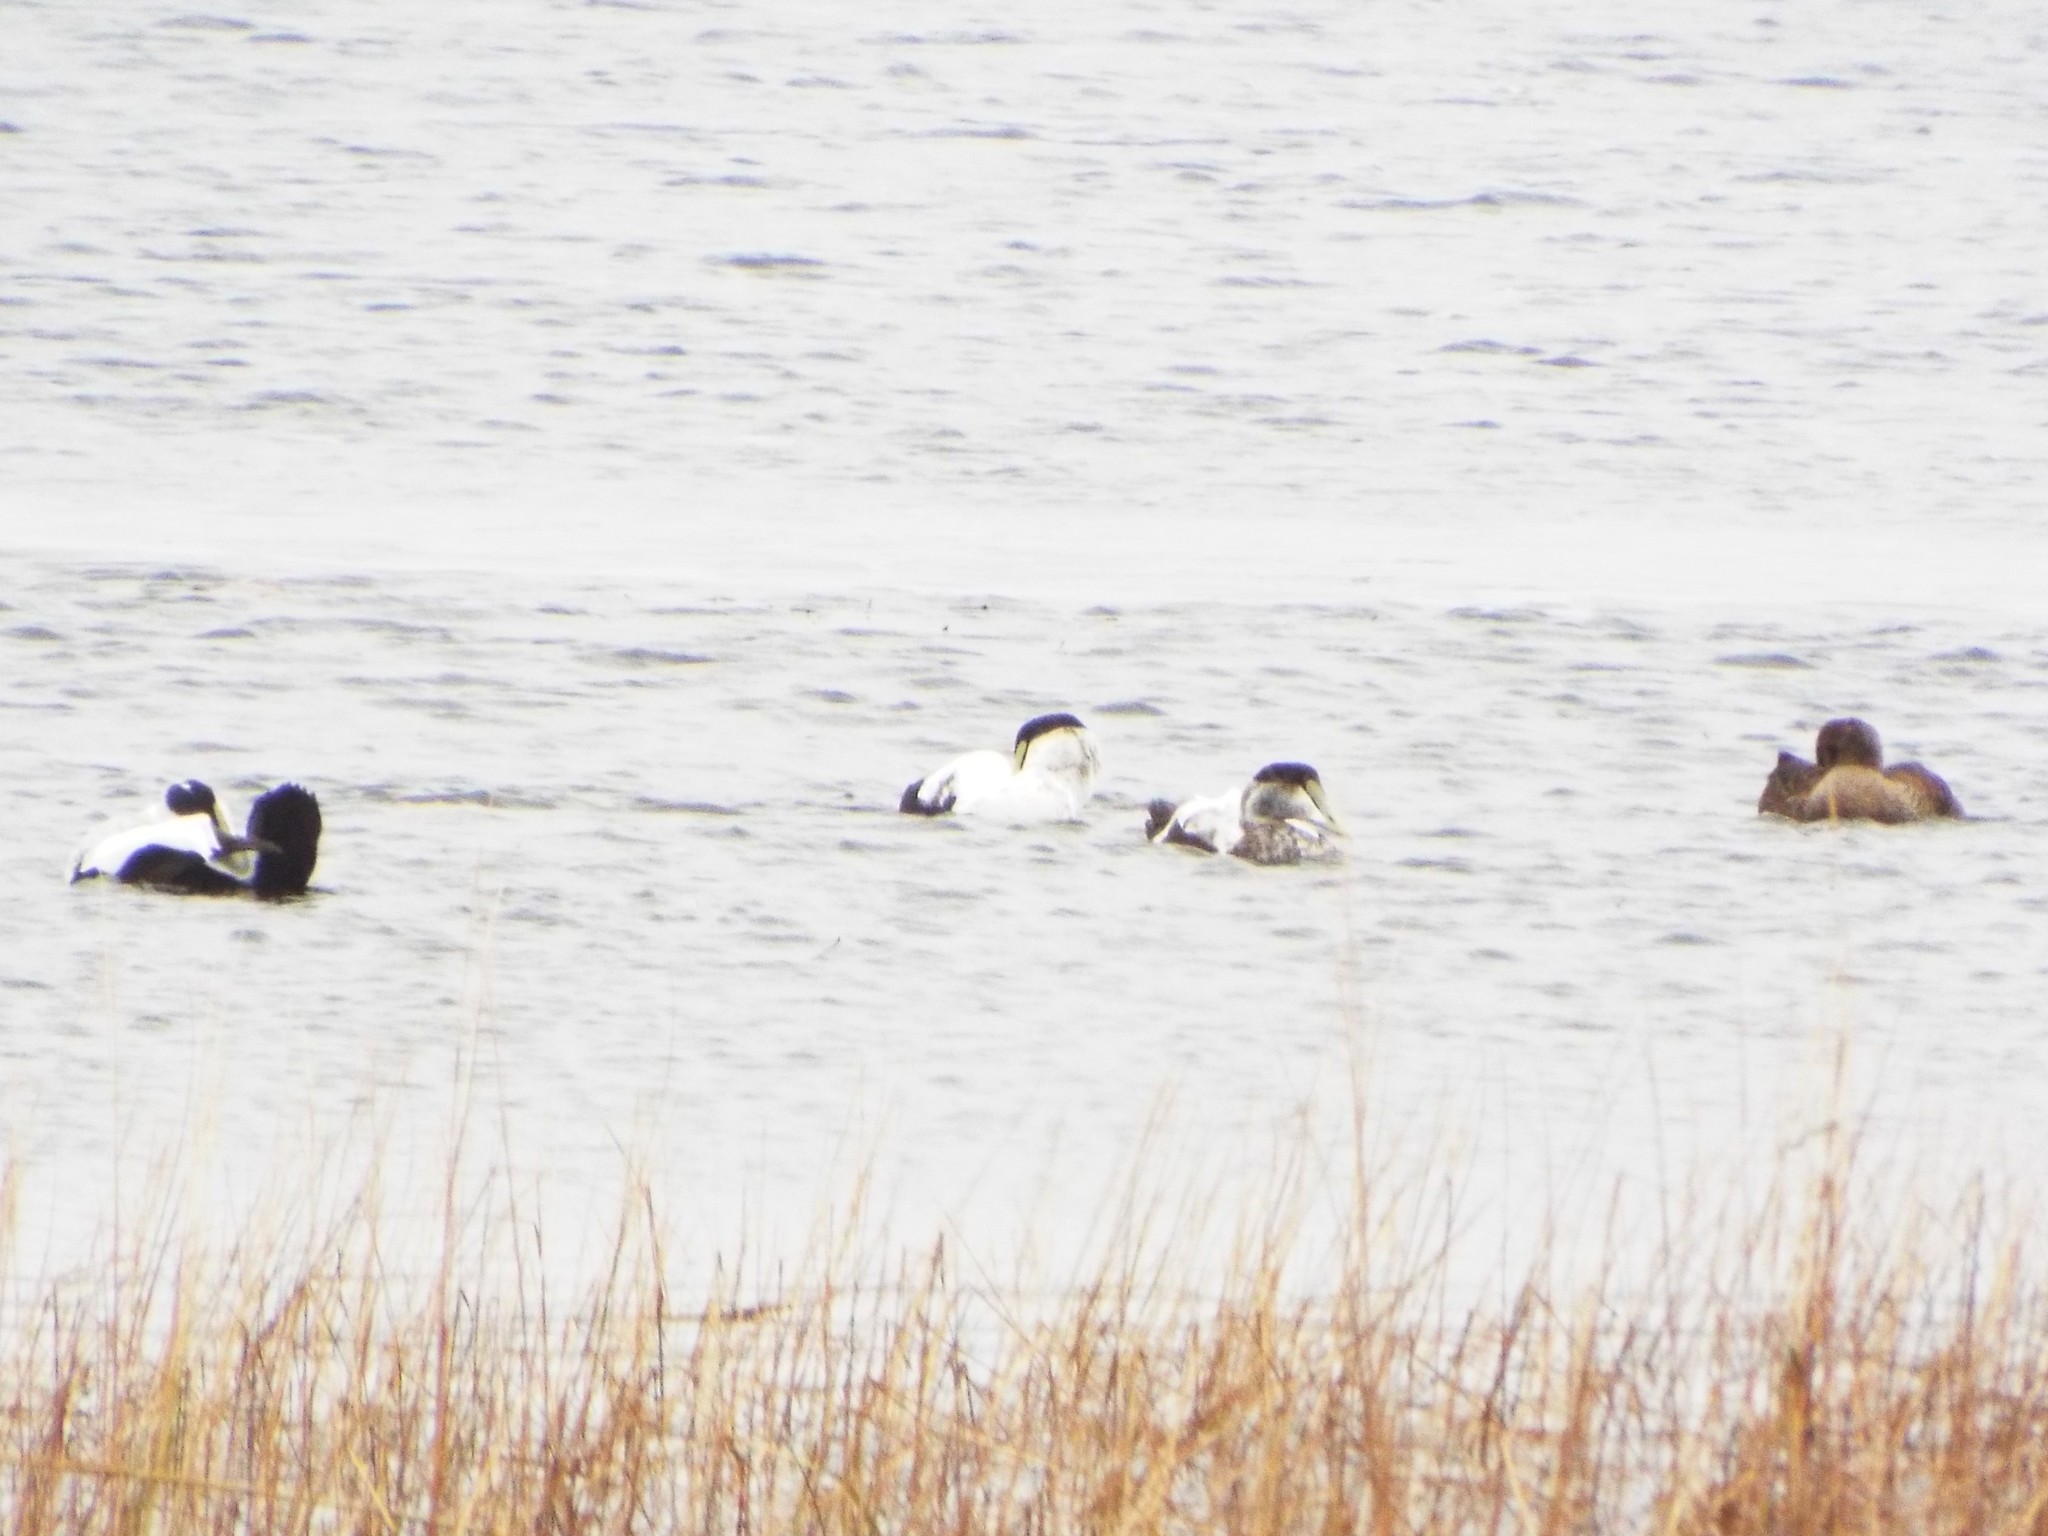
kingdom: Animalia
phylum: Chordata
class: Aves
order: Anseriformes
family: Anatidae
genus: Somateria
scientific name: Somateria mollissima
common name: Common eider
